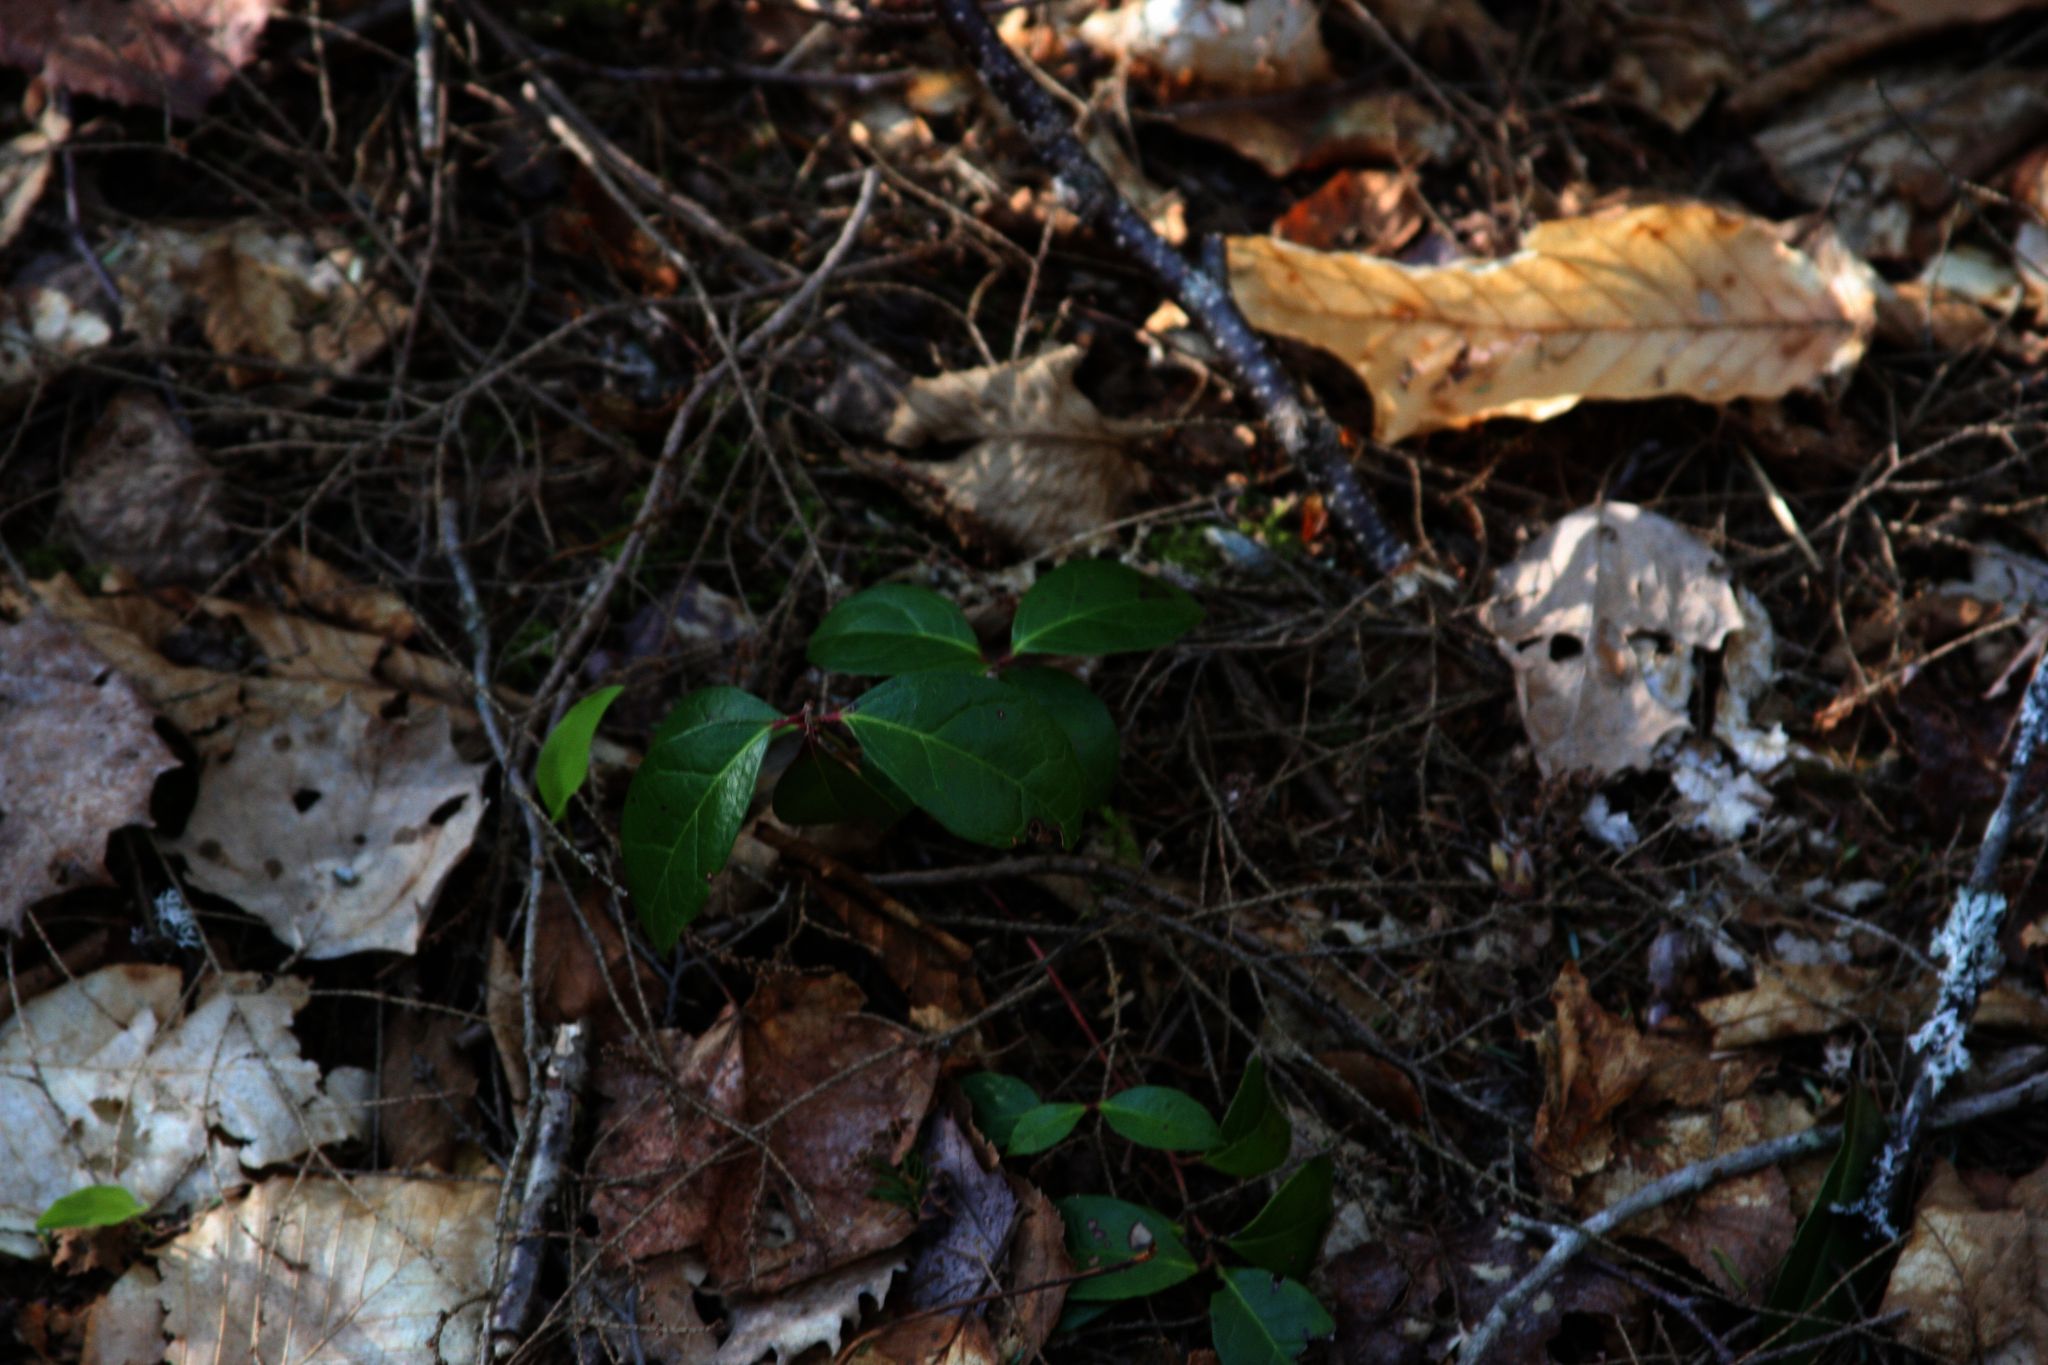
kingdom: Plantae
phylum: Tracheophyta
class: Magnoliopsida
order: Ericales
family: Ericaceae
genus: Gaultheria
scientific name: Gaultheria procumbens
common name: Checkerberry
